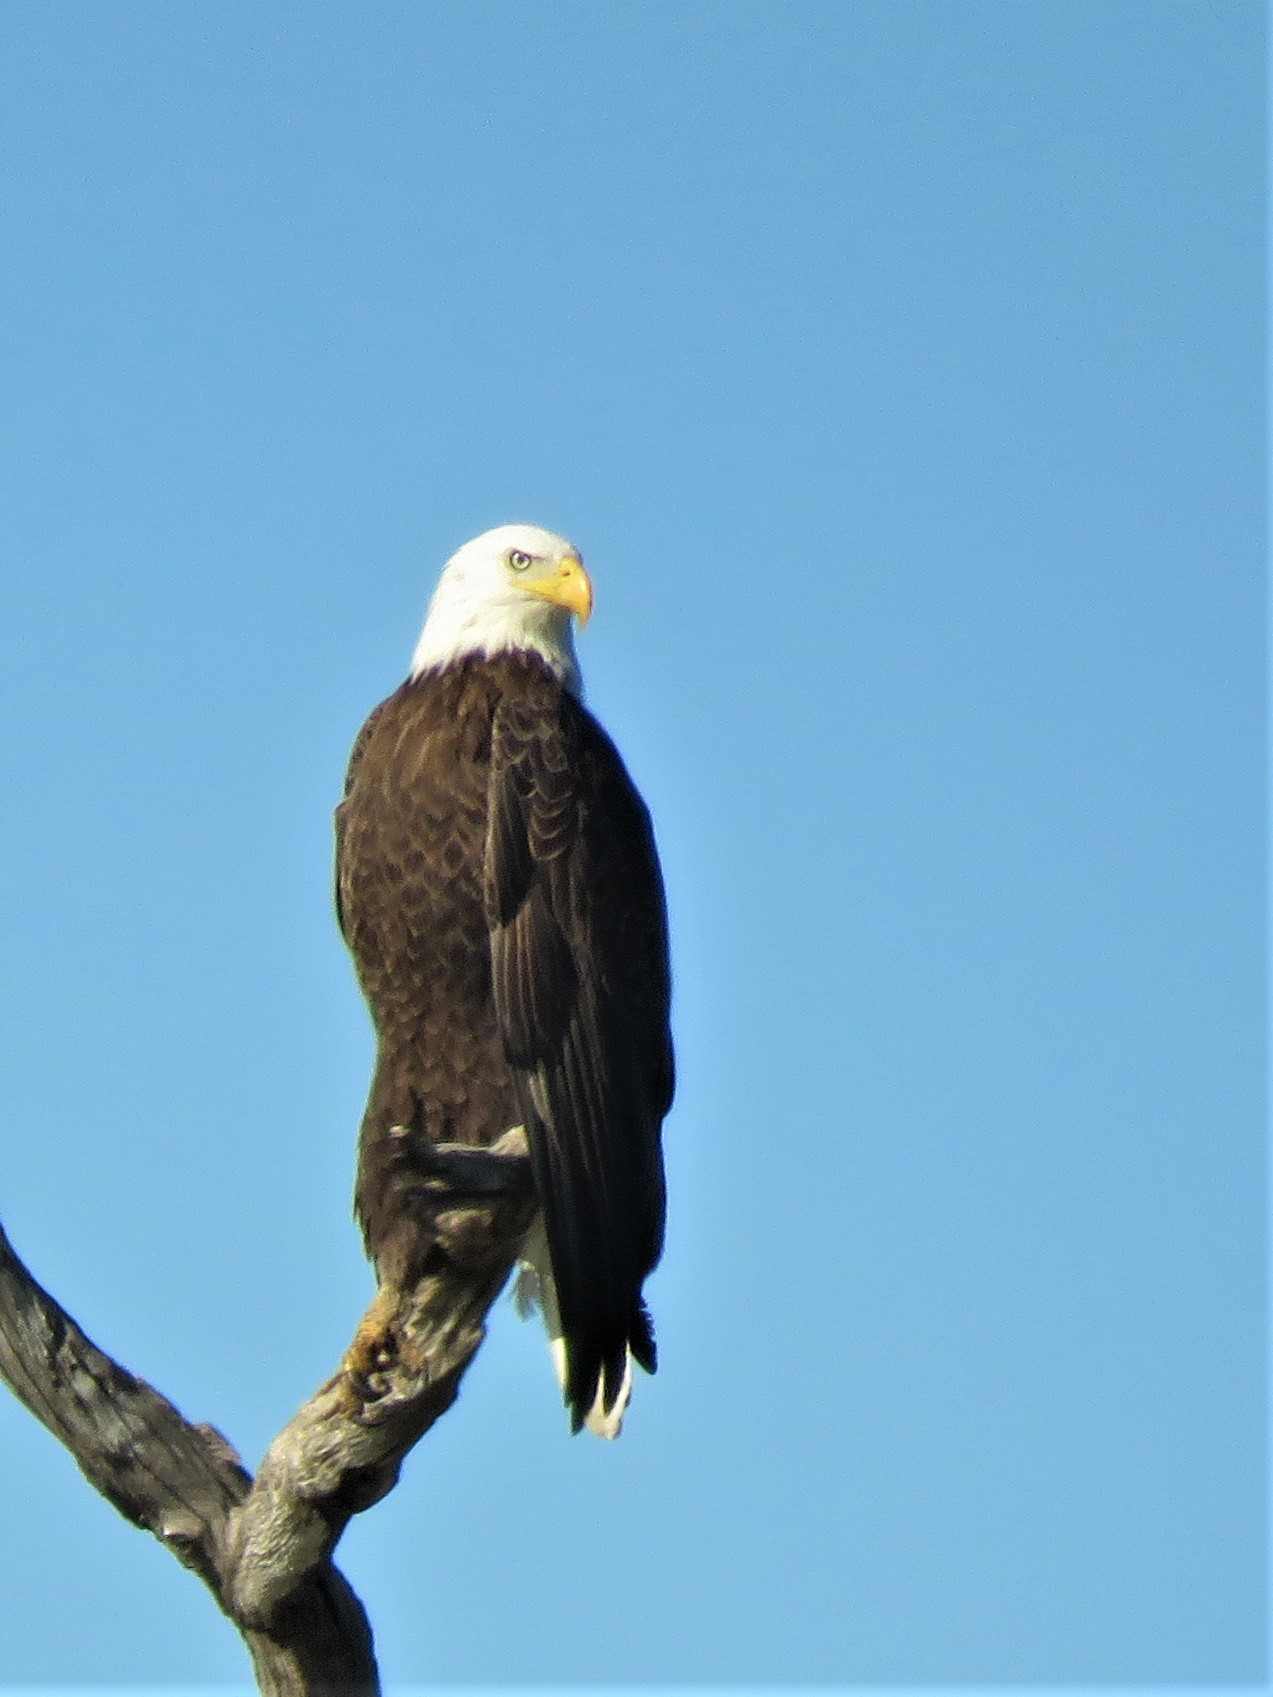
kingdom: Animalia
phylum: Chordata
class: Aves
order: Accipitriformes
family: Accipitridae
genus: Haliaeetus
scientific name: Haliaeetus leucocephalus
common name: Bald eagle
